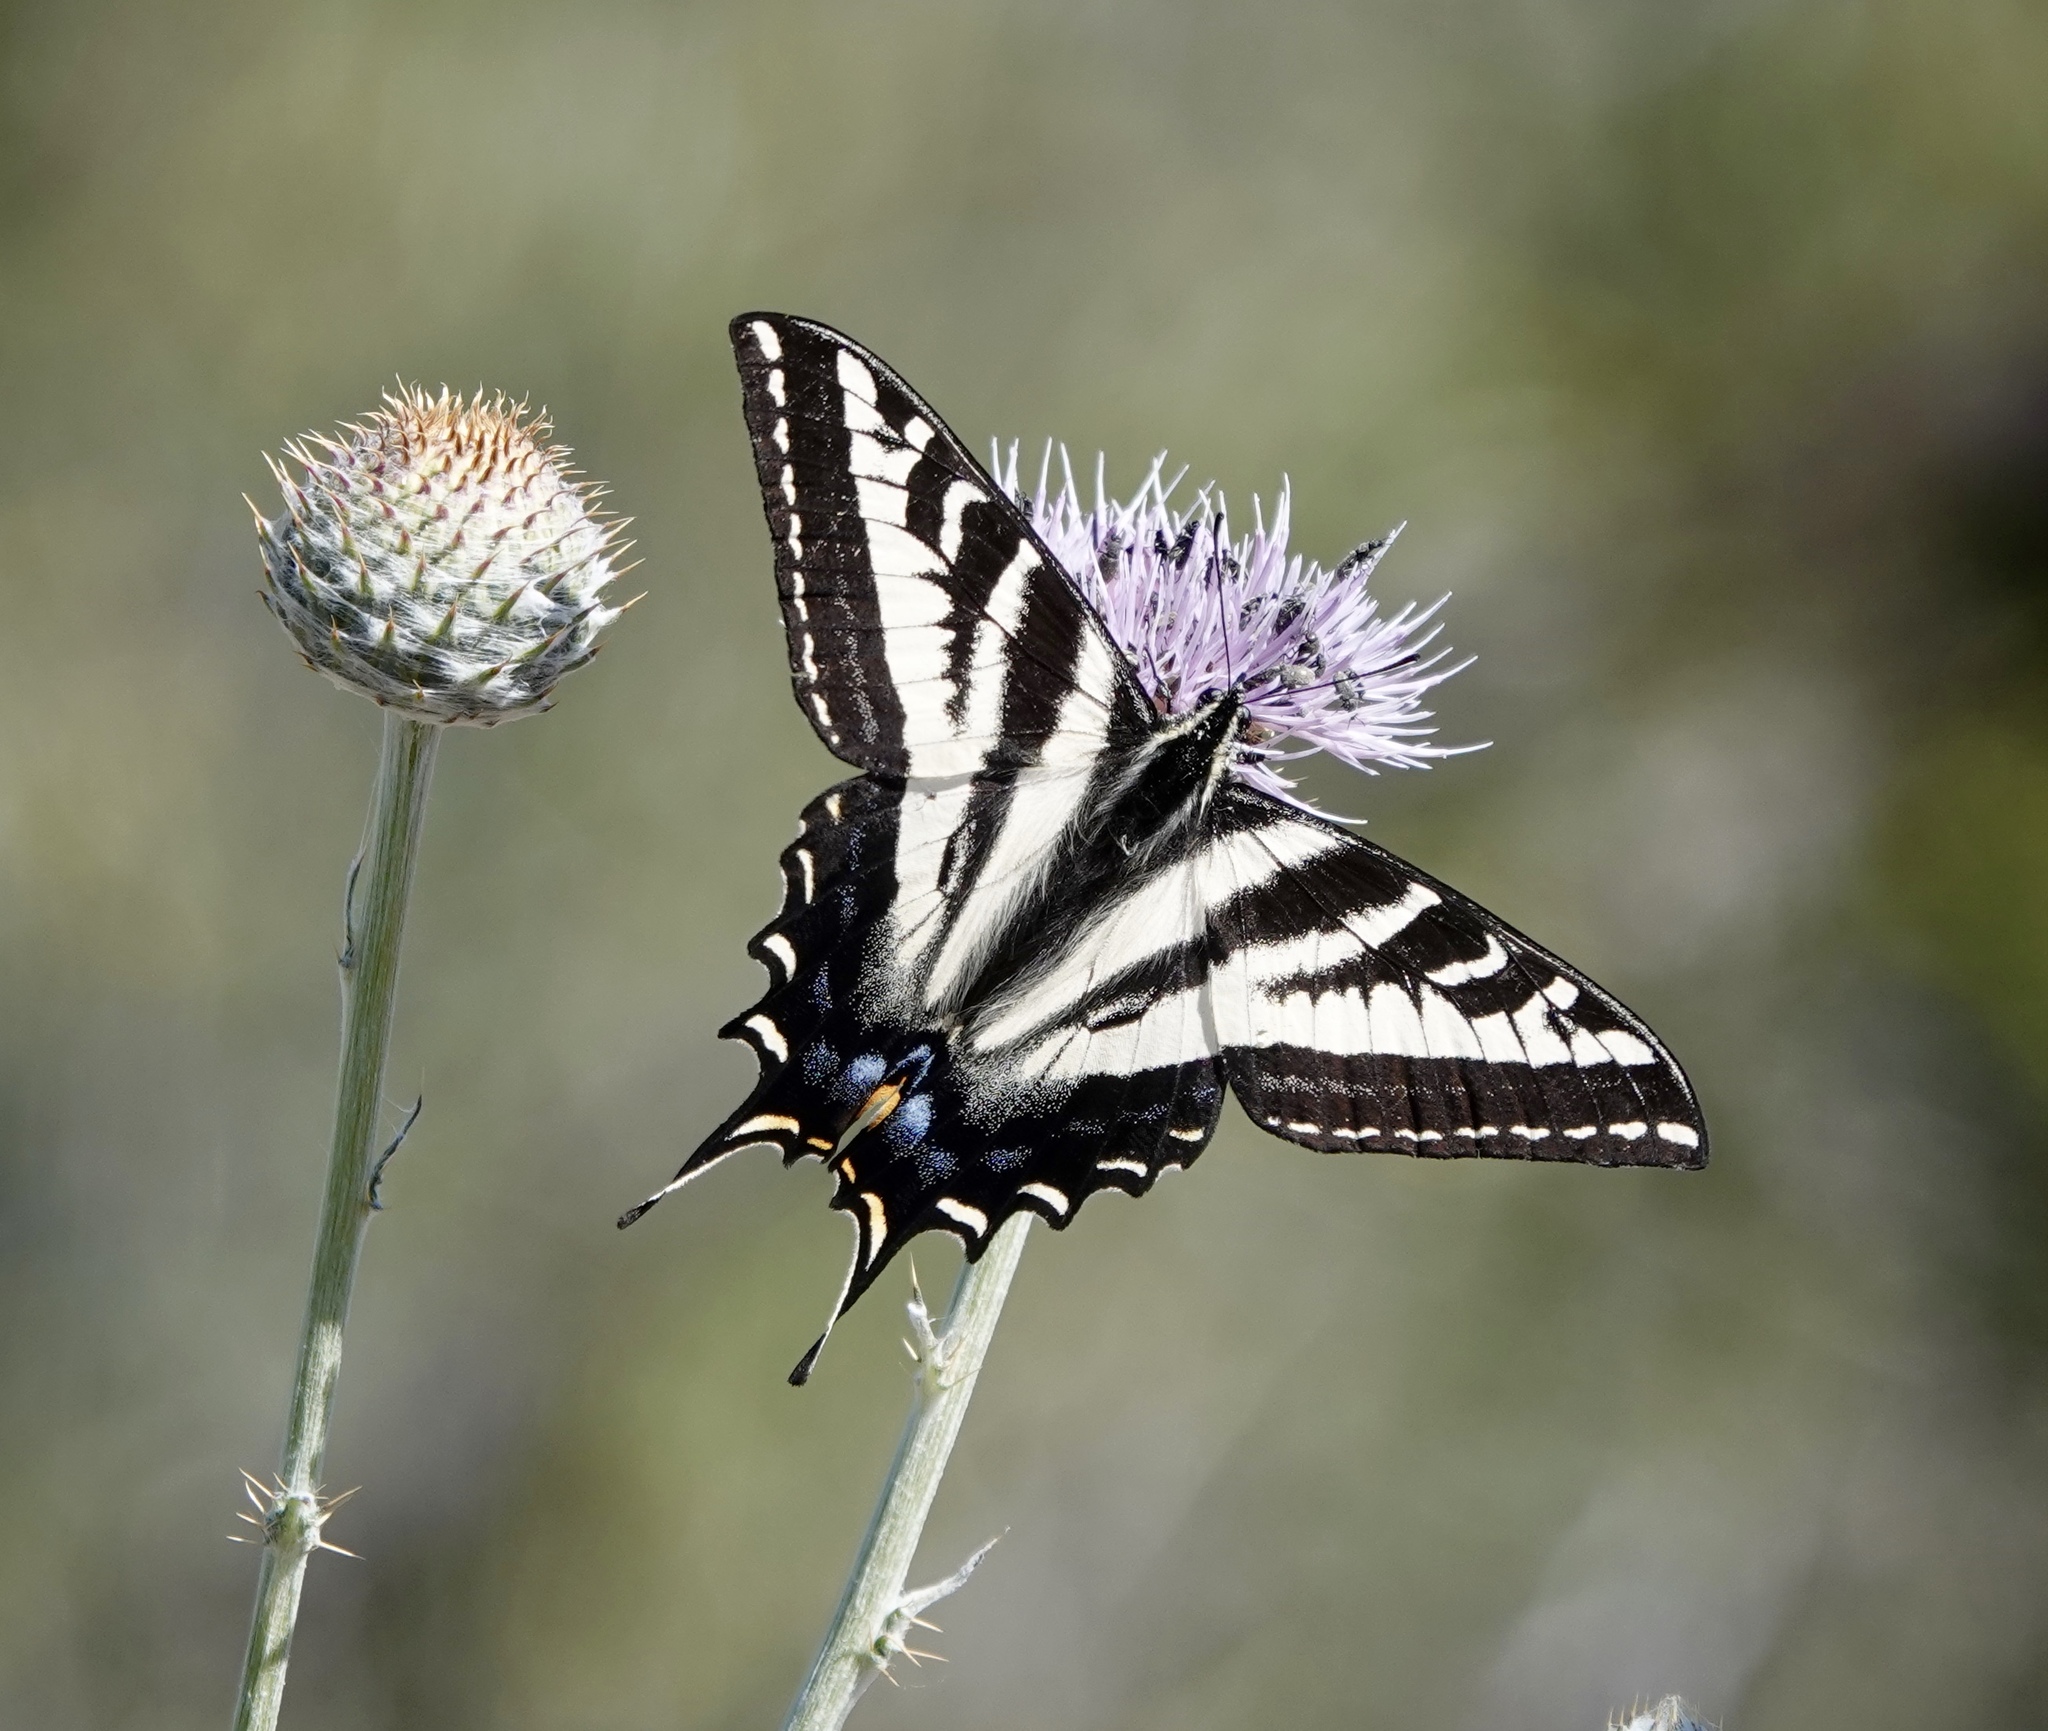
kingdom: Animalia
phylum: Arthropoda
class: Insecta
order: Lepidoptera
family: Papilionidae
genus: Papilio
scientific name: Papilio eurymedon
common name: Pale tiger swallowtail
